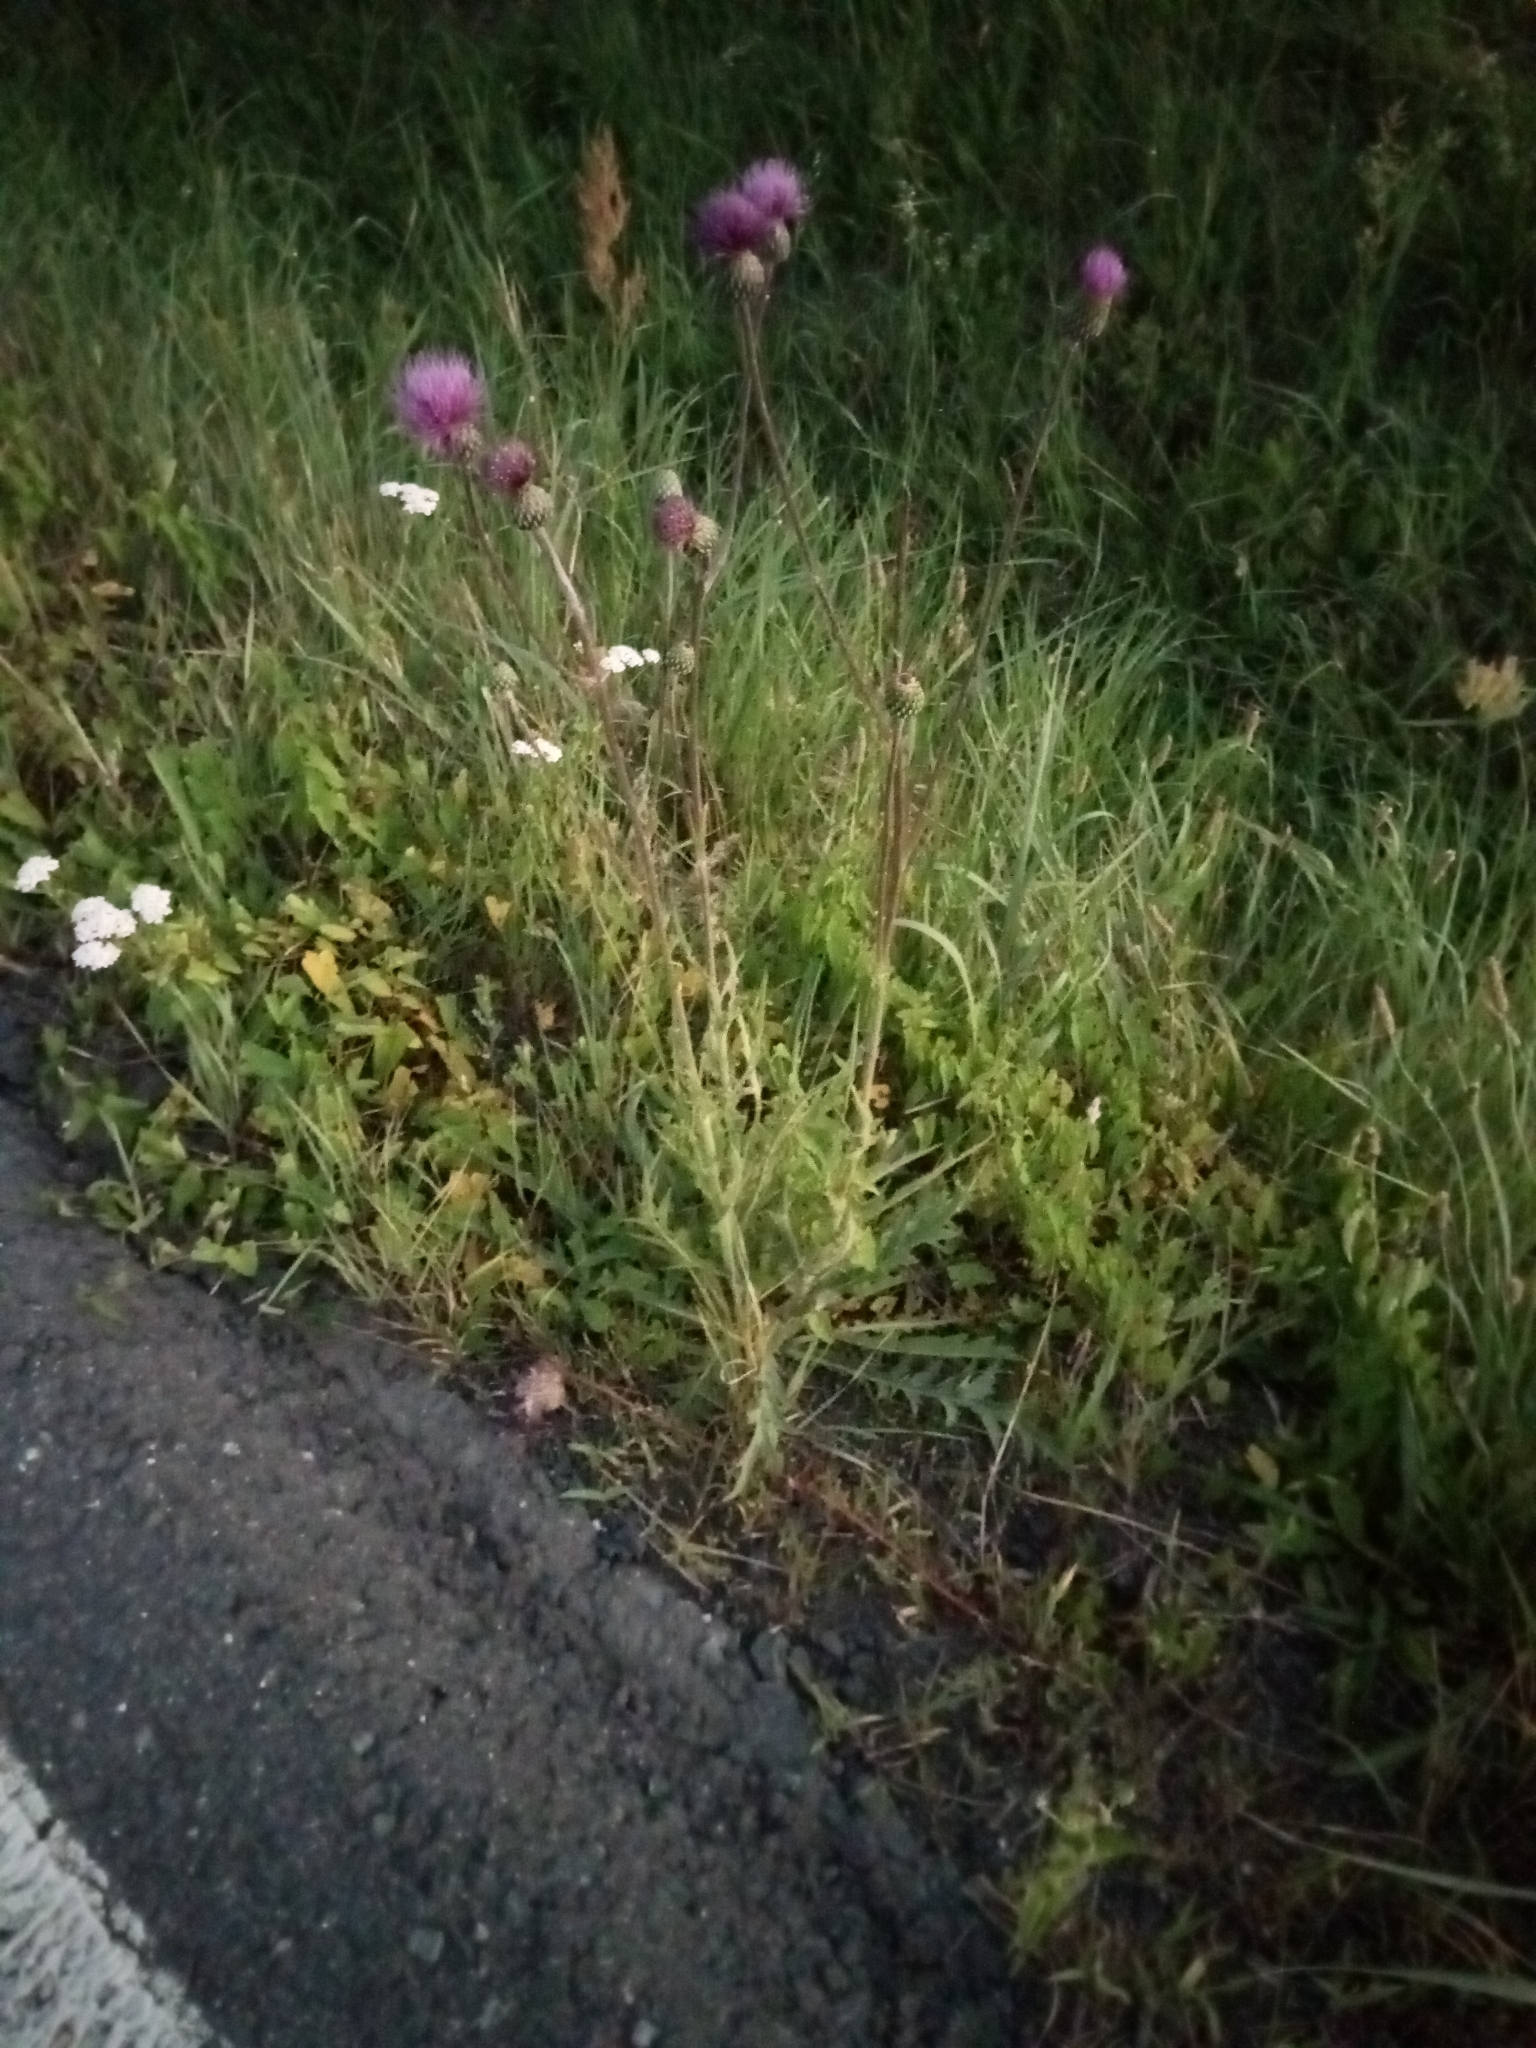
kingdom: Plantae
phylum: Tracheophyta
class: Magnoliopsida
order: Asterales
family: Asteraceae
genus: Cirsium
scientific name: Cirsium canum
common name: Queen anne's thistle
